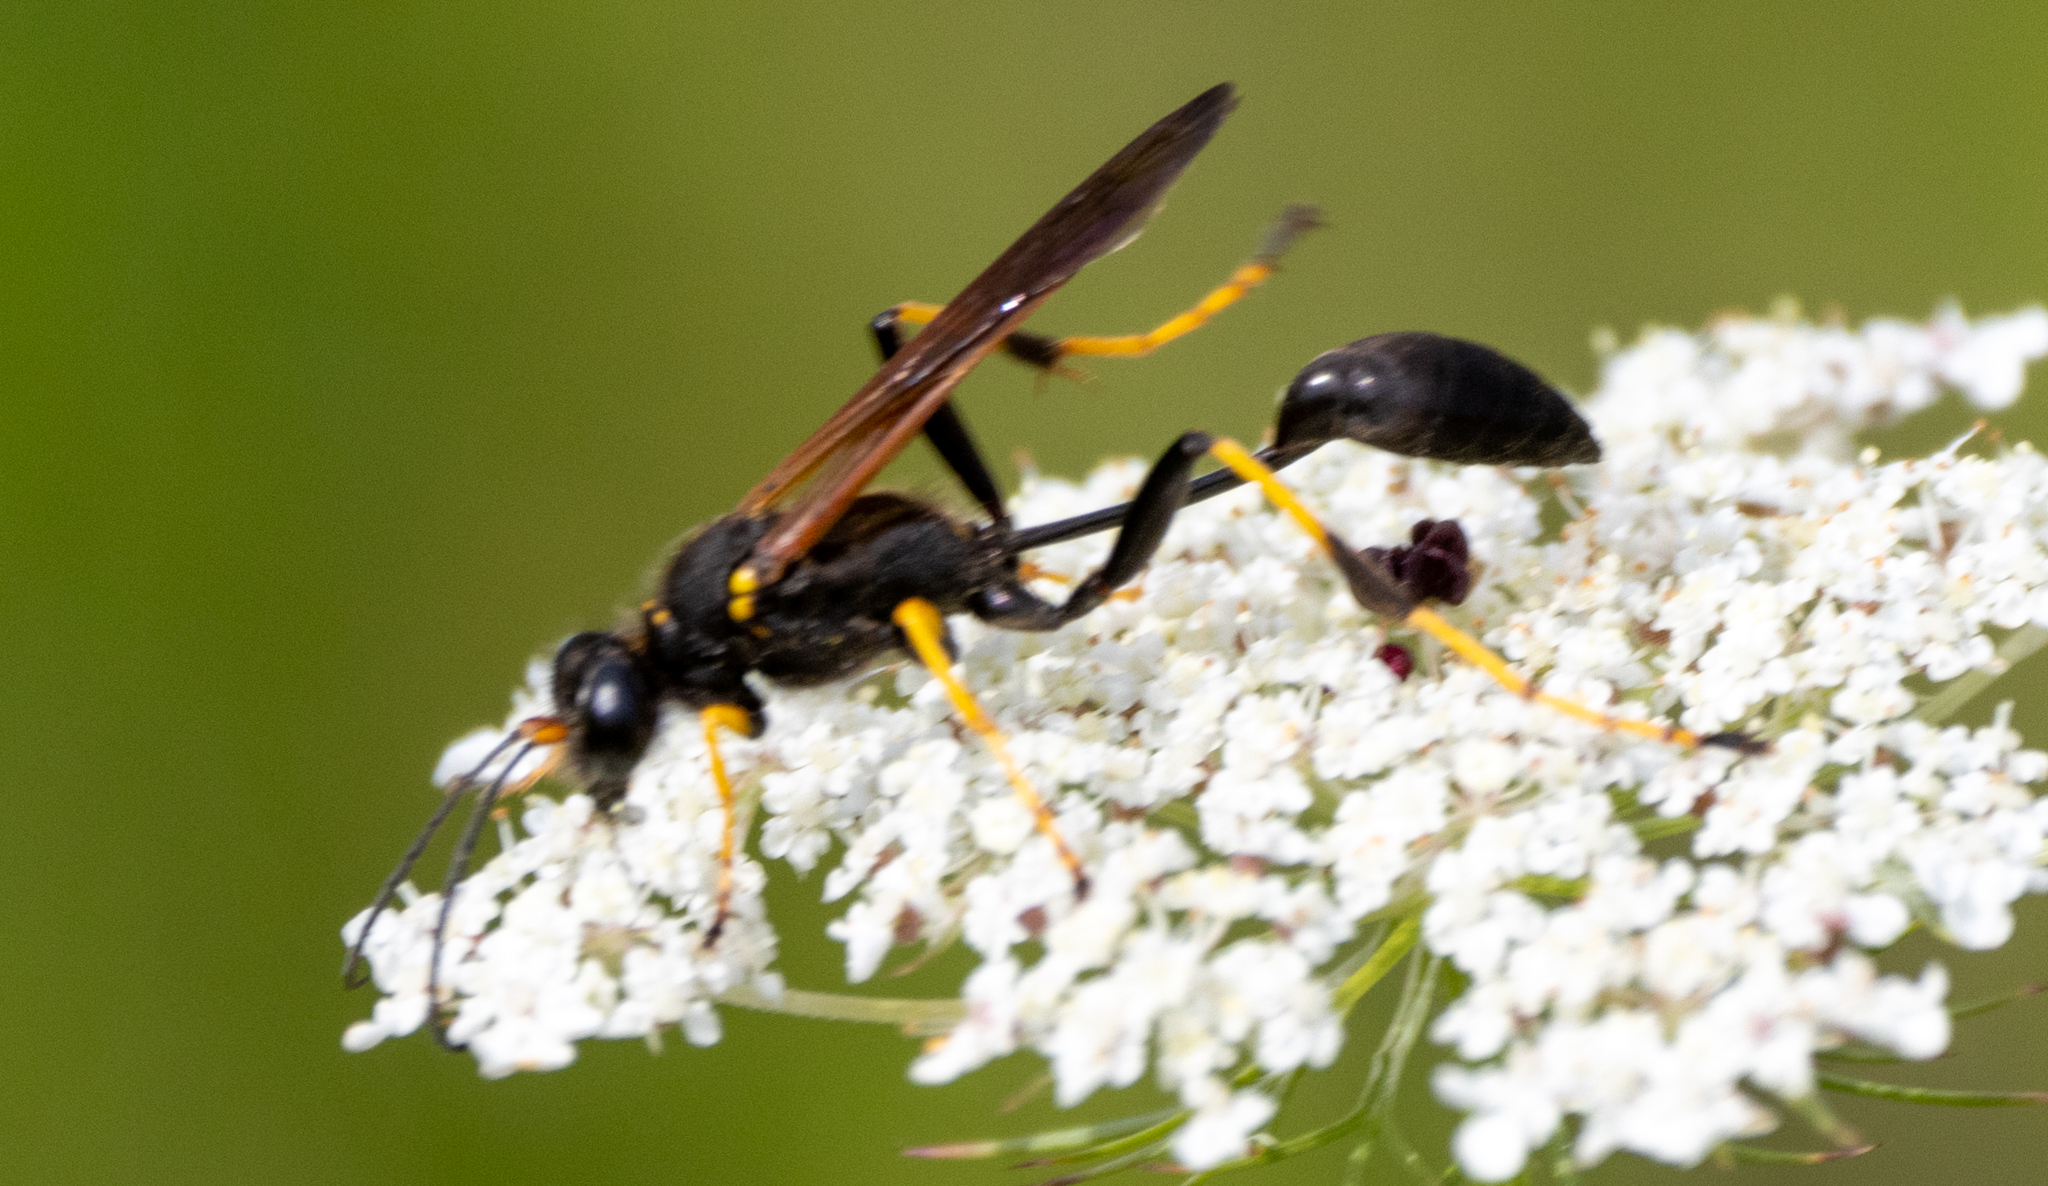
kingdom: Animalia
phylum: Arthropoda
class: Insecta
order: Hymenoptera
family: Sphecidae
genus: Sceliphron
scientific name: Sceliphron caementarium
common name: Mud dauber
